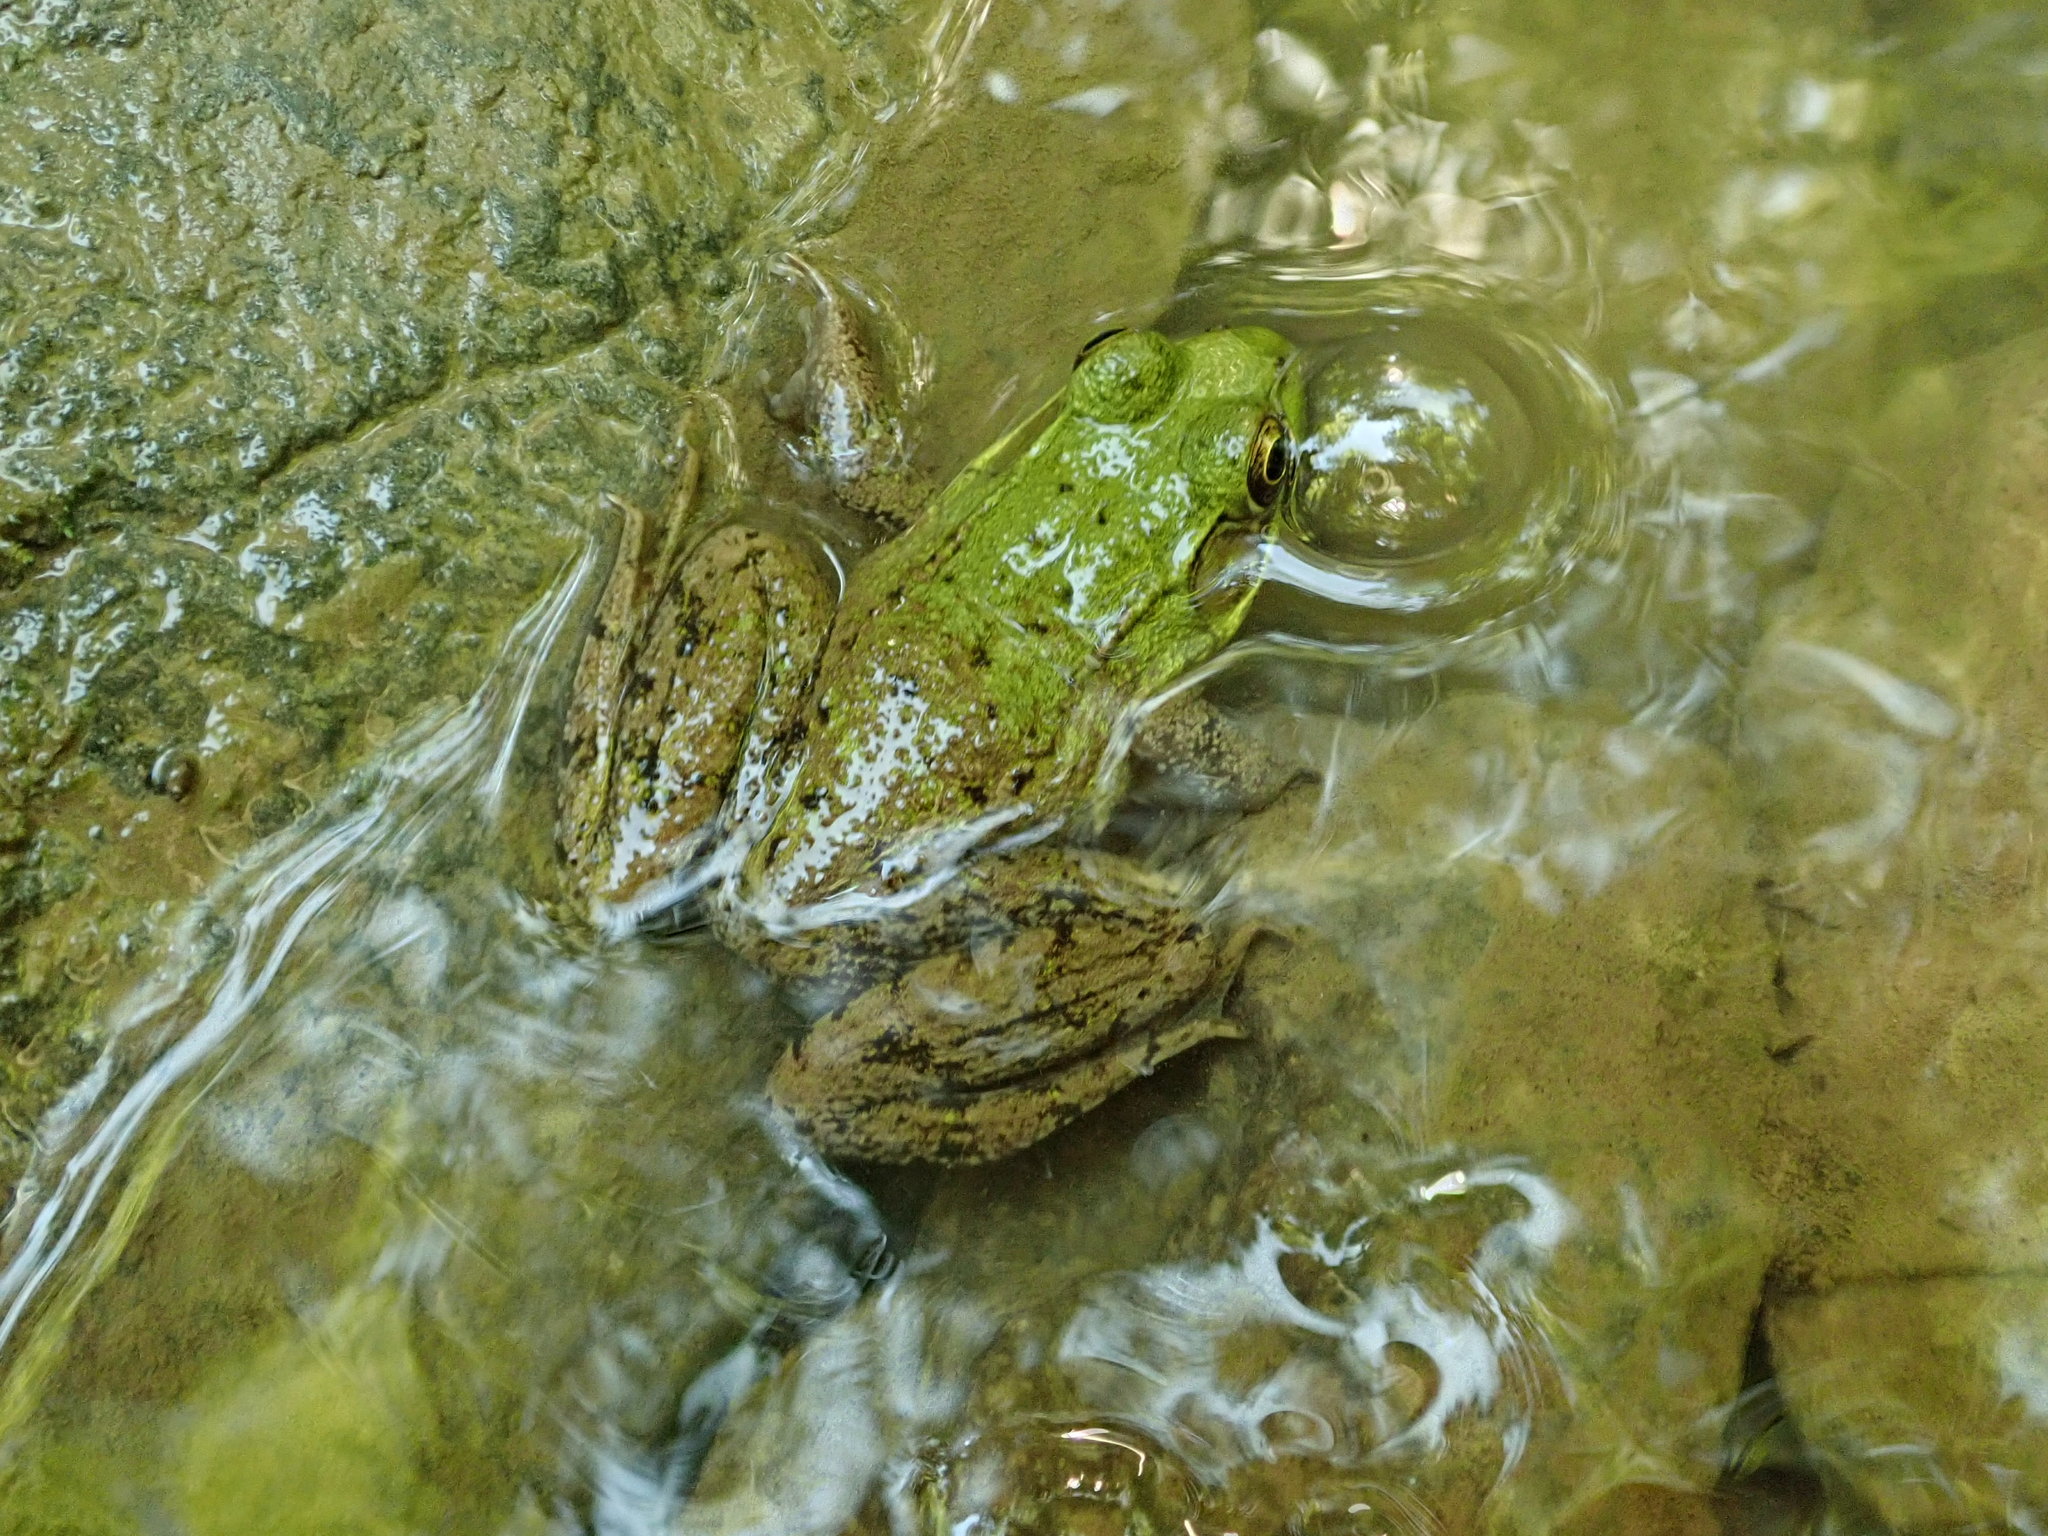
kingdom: Animalia
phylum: Chordata
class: Amphibia
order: Anura
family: Ranidae
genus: Lithobates
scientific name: Lithobates clamitans
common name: Green frog
